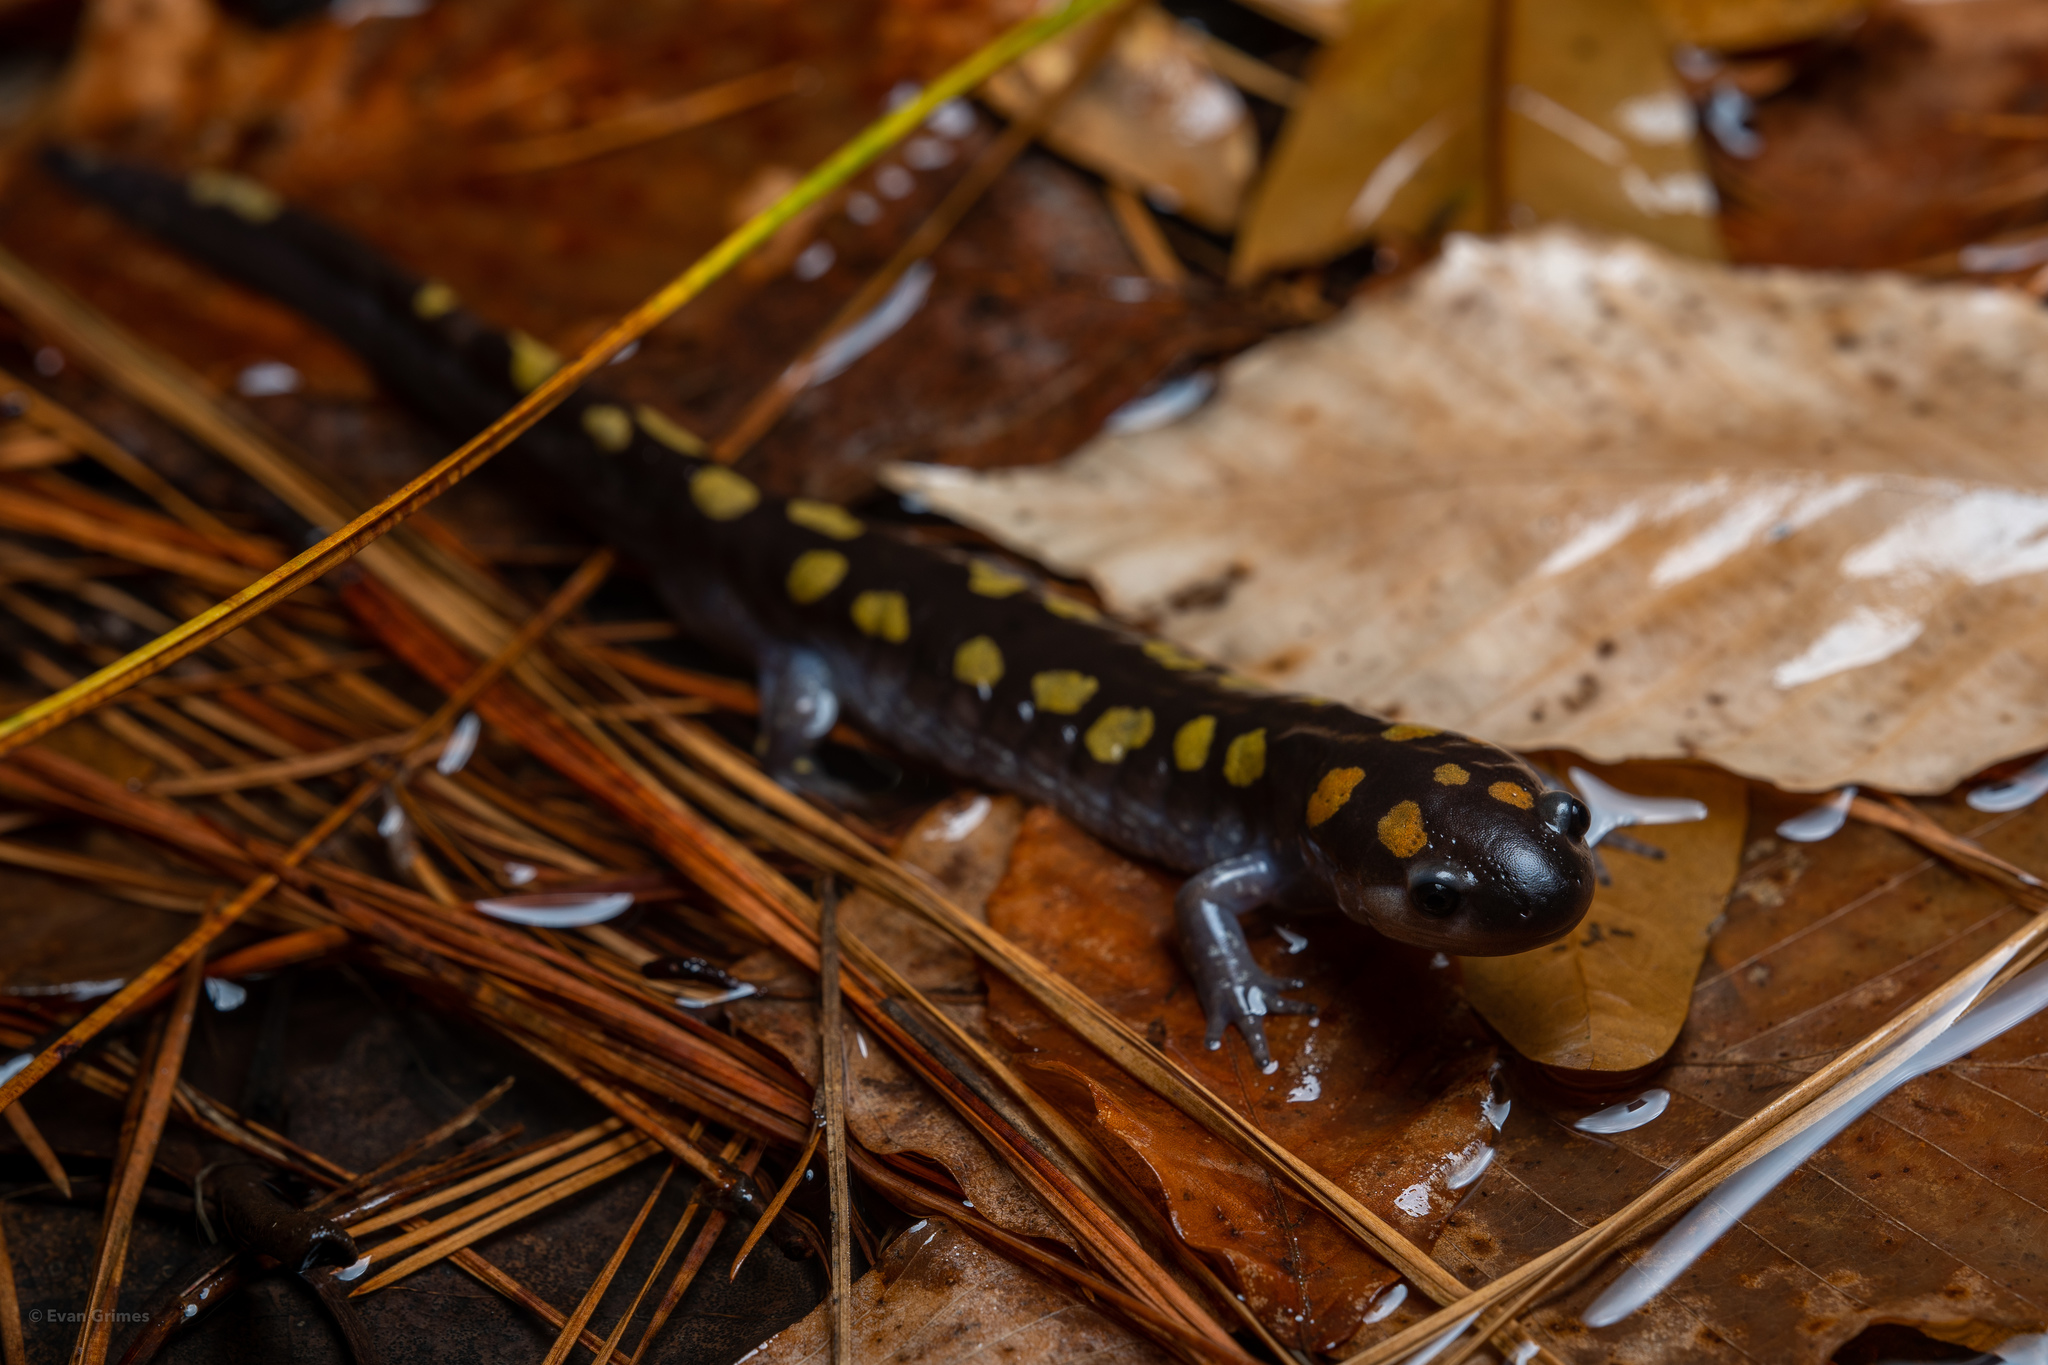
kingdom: Animalia
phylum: Chordata
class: Amphibia
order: Caudata
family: Ambystomatidae
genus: Ambystoma
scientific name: Ambystoma maculatum
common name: Spotted salamander
